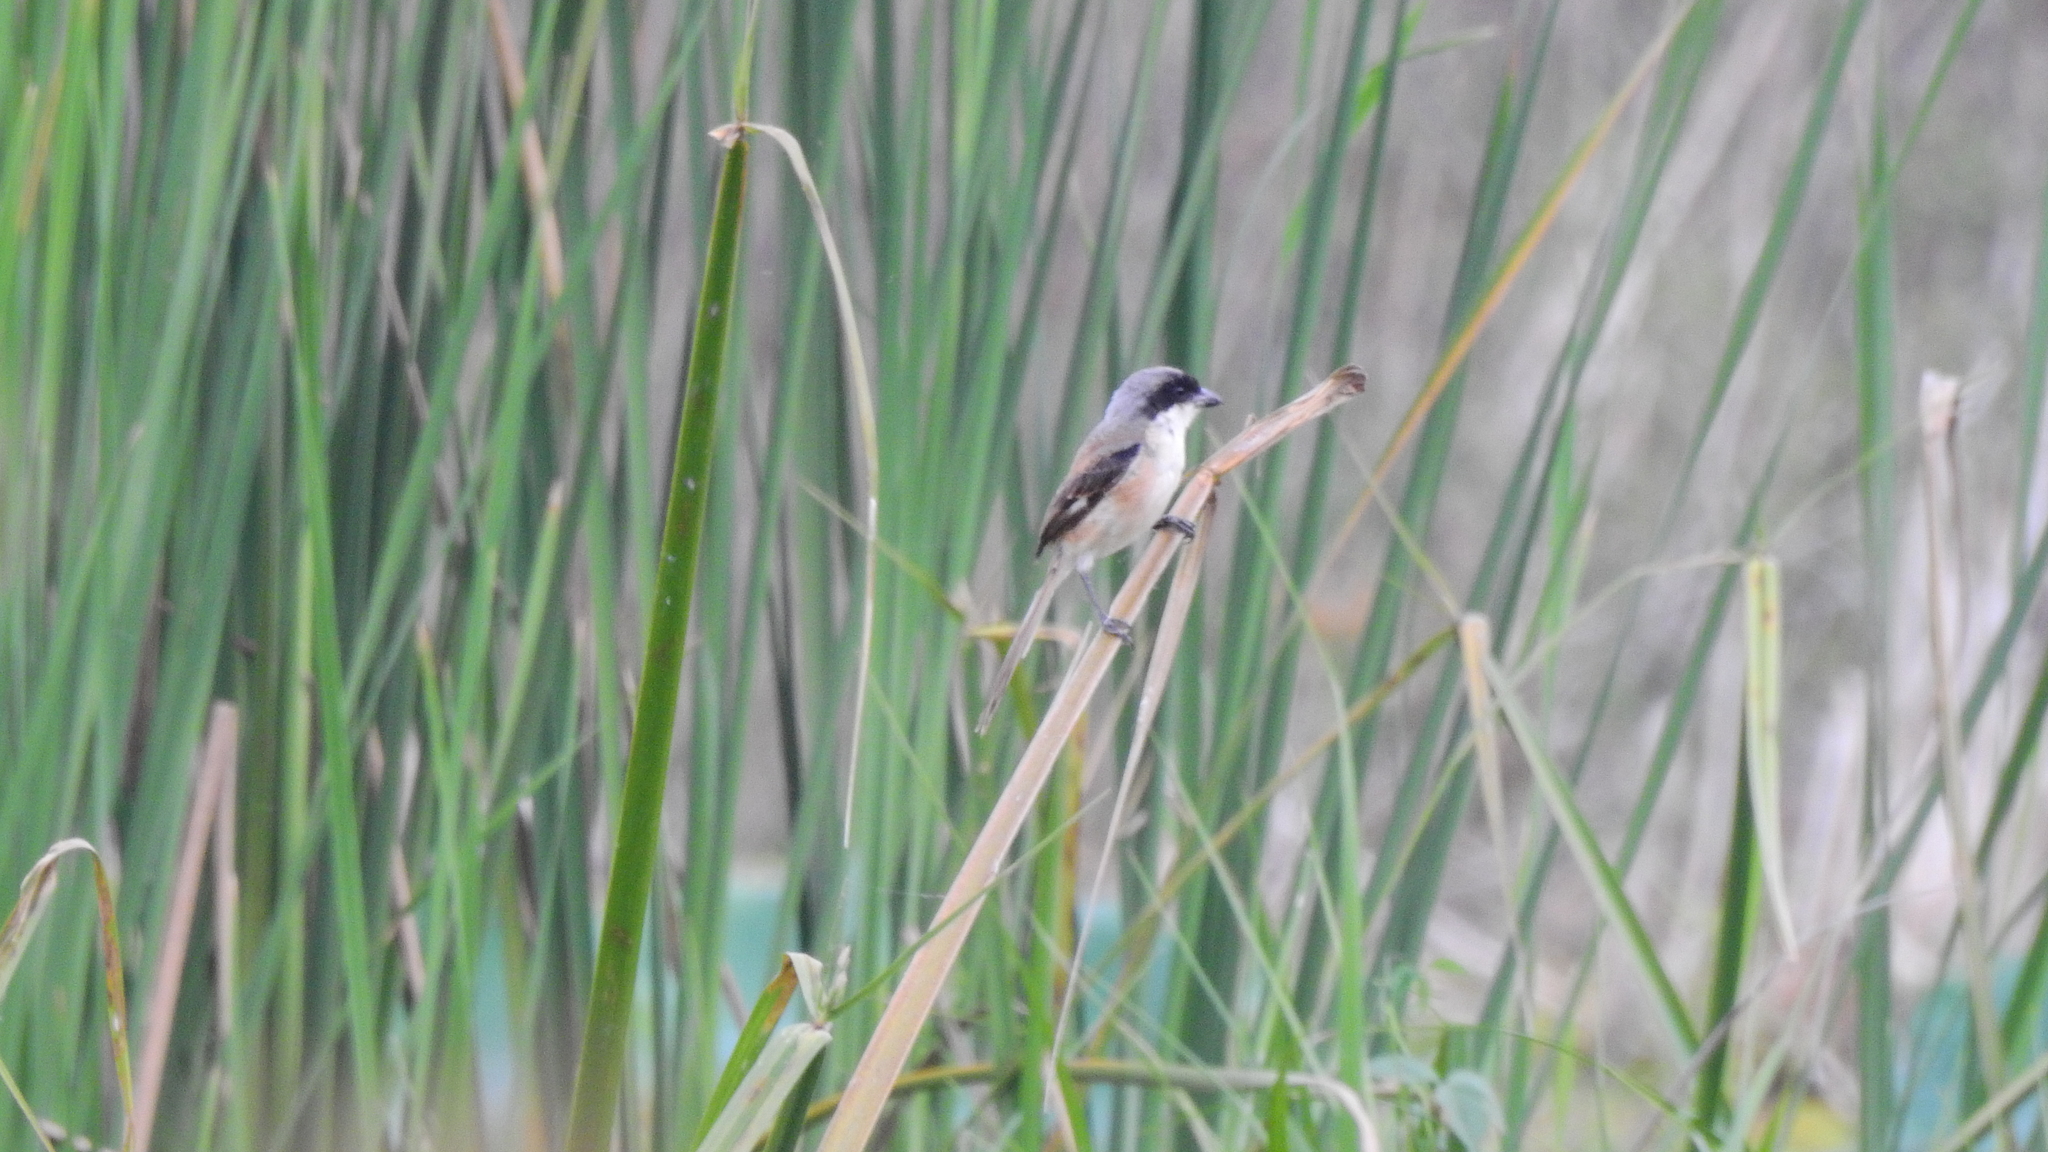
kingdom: Animalia
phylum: Chordata
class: Aves
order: Passeriformes
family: Laniidae
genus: Lanius
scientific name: Lanius schach
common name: Long-tailed shrike
